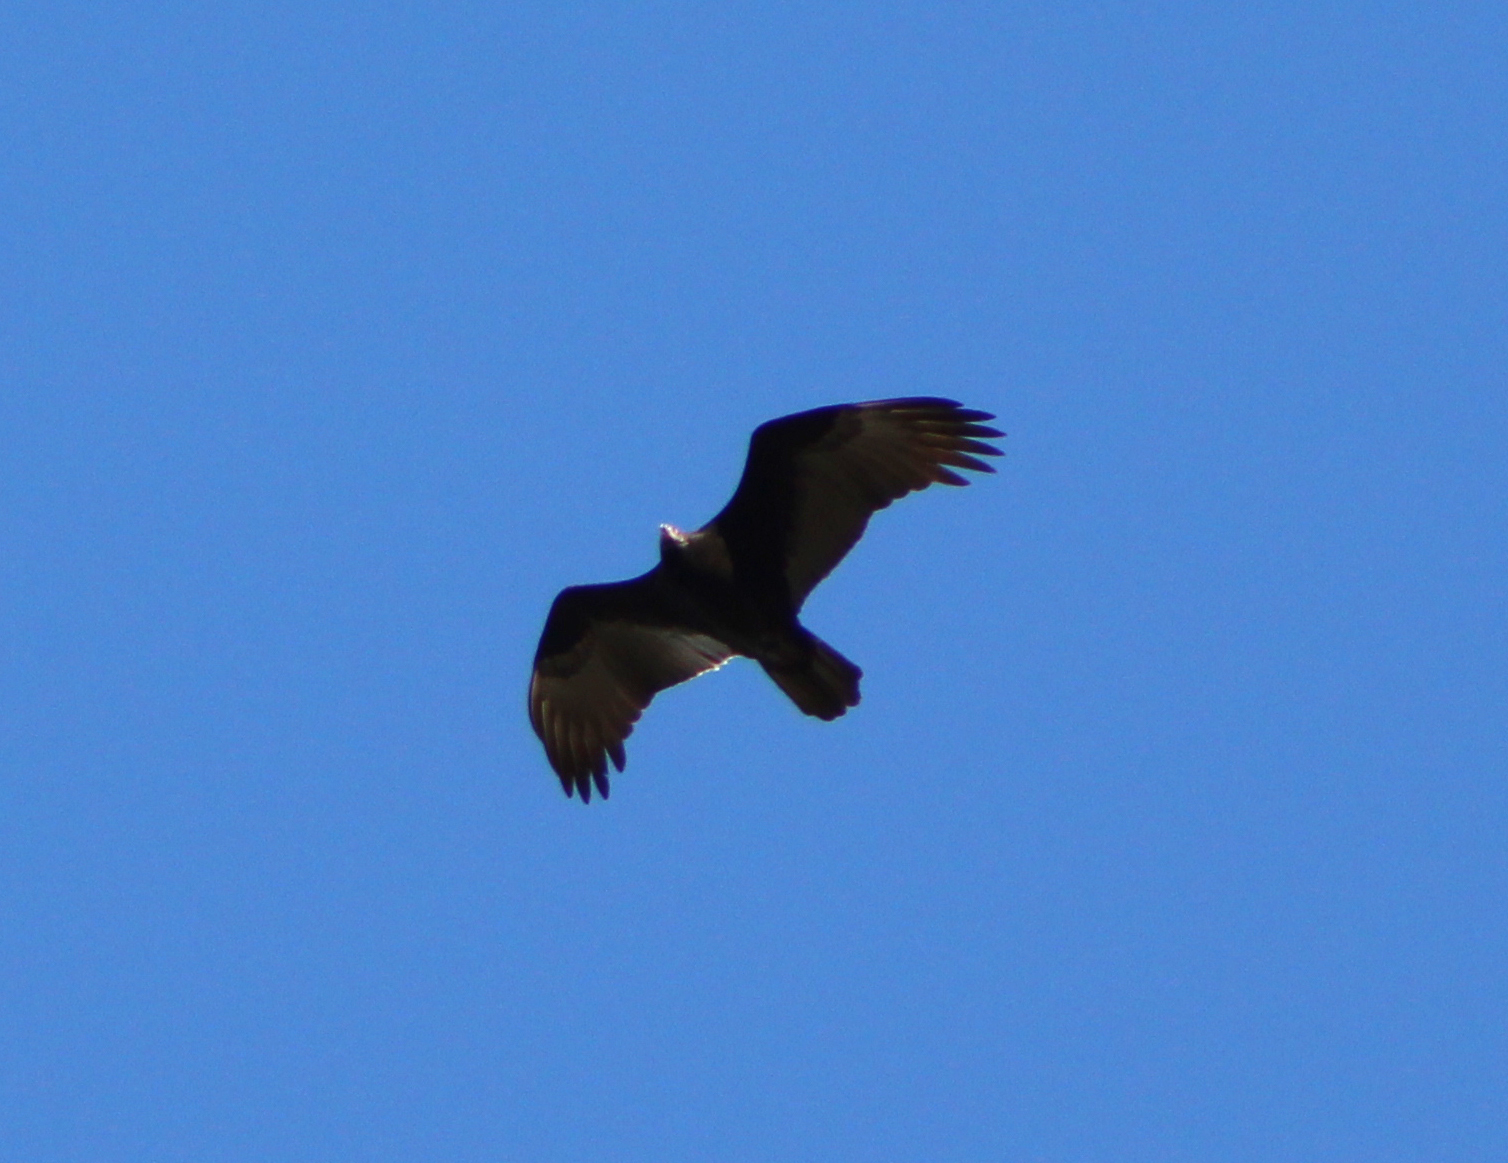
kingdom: Animalia
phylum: Chordata
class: Aves
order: Accipitriformes
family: Cathartidae
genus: Cathartes
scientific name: Cathartes aura
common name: Turkey vulture
